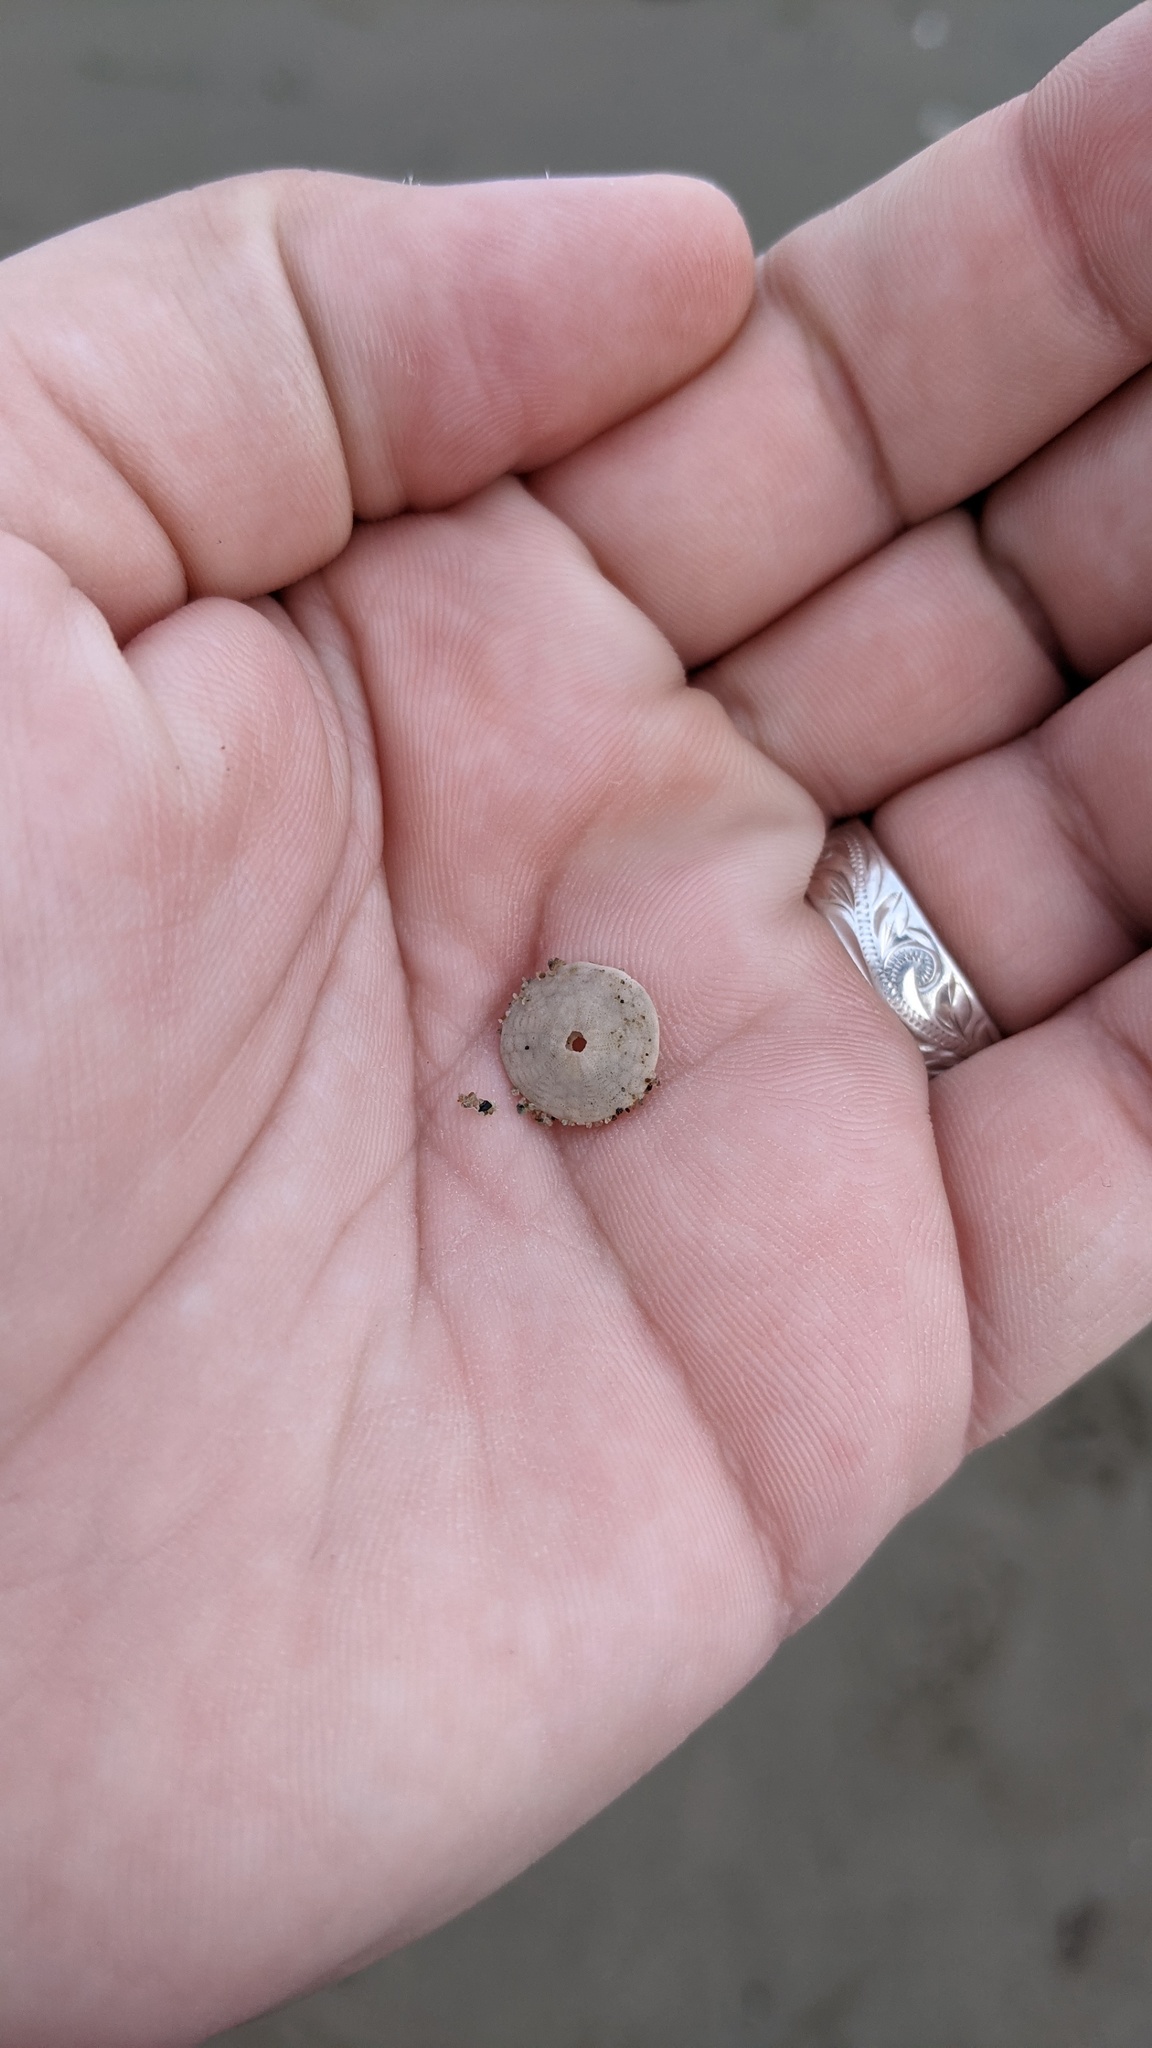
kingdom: Animalia
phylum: Echinodermata
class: Echinoidea
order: Echinolampadacea
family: Echinarachniidae
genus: Echinarachnius
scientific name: Echinarachnius parma
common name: Common sand dollar
